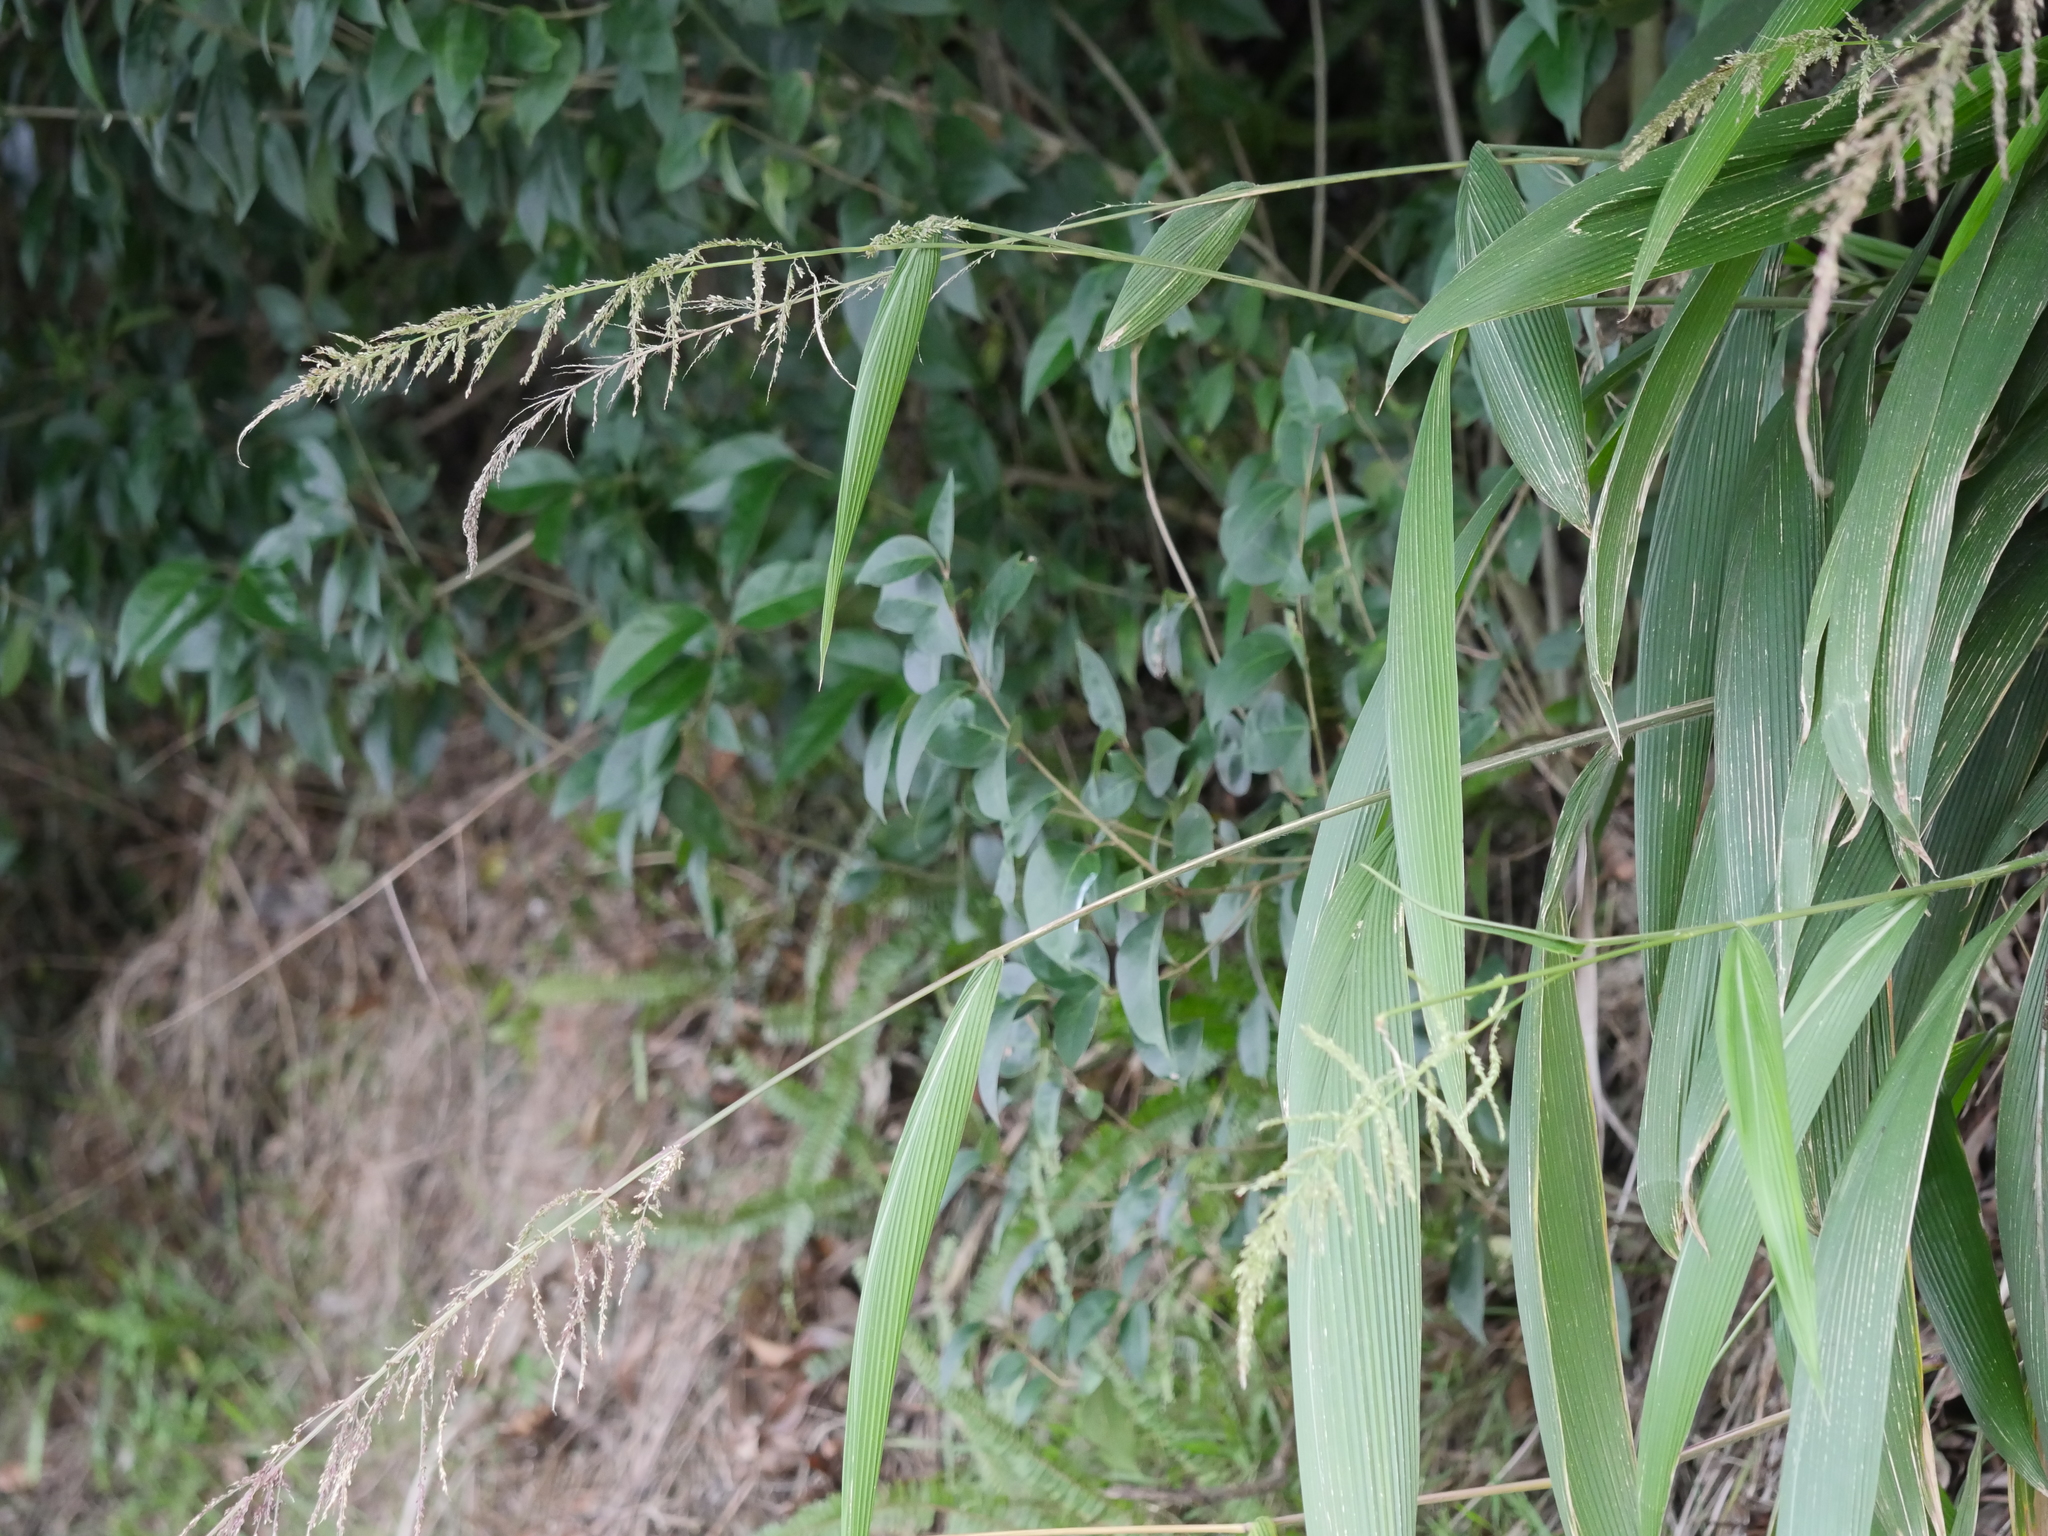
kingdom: Plantae
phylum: Tracheophyta
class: Liliopsida
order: Poales
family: Poaceae
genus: Setaria
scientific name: Setaria palmifolia
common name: Broadleaved bristlegrass
